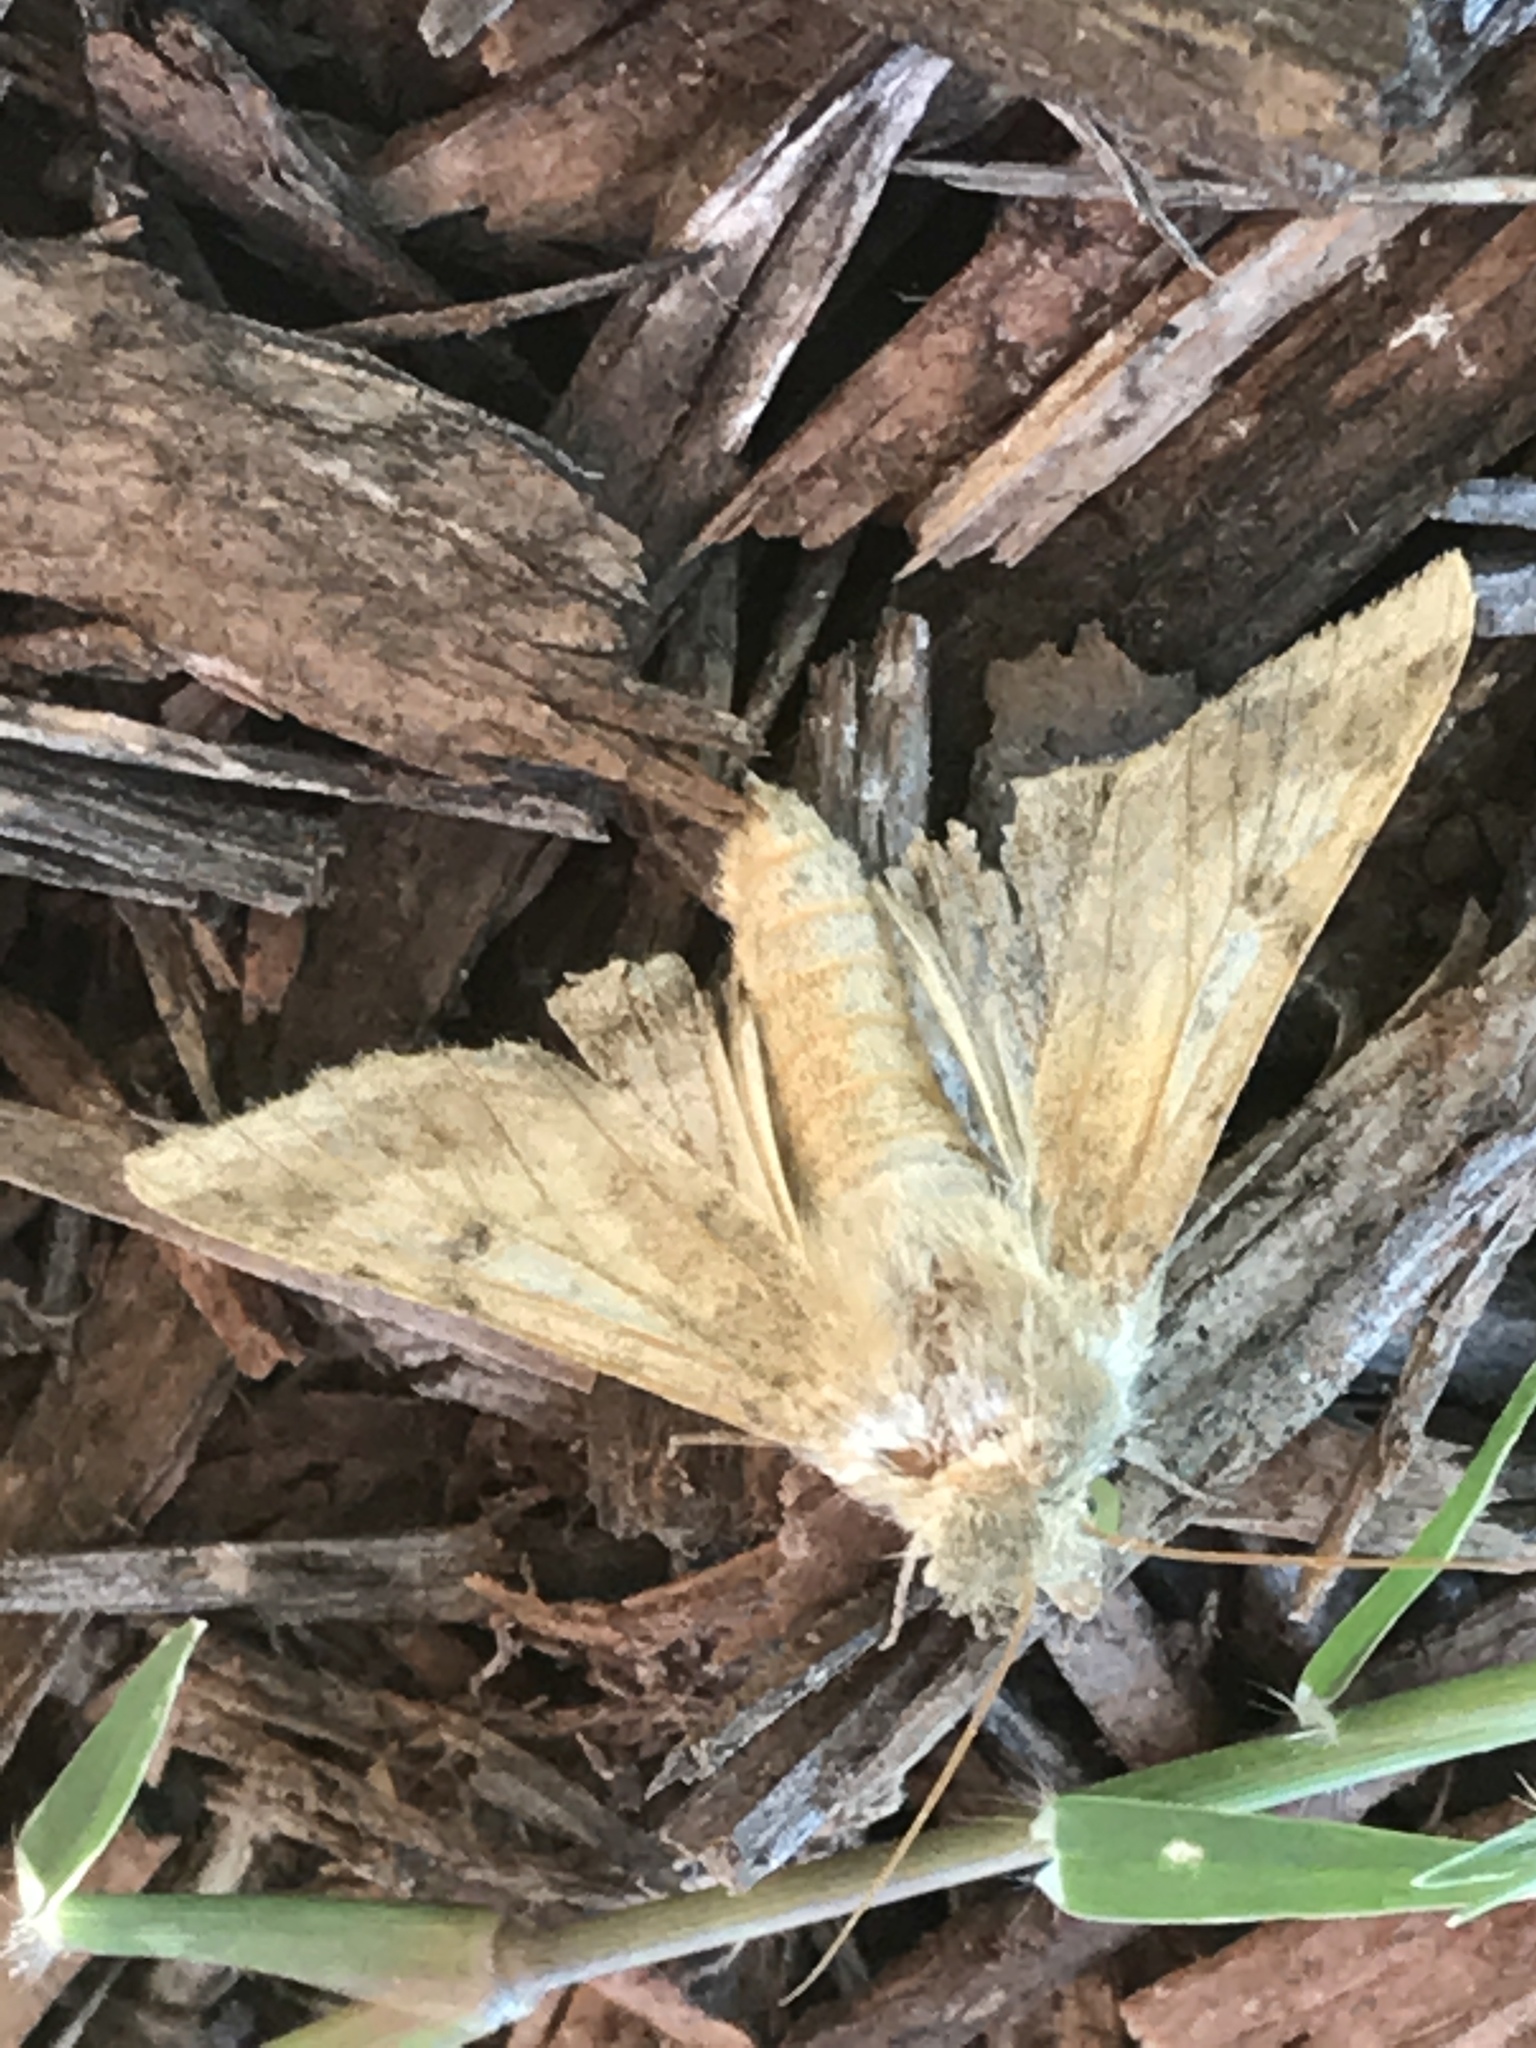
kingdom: Animalia
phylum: Arthropoda
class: Insecta
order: Lepidoptera
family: Noctuidae
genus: Helicoverpa
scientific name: Helicoverpa zea
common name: Bollworm
